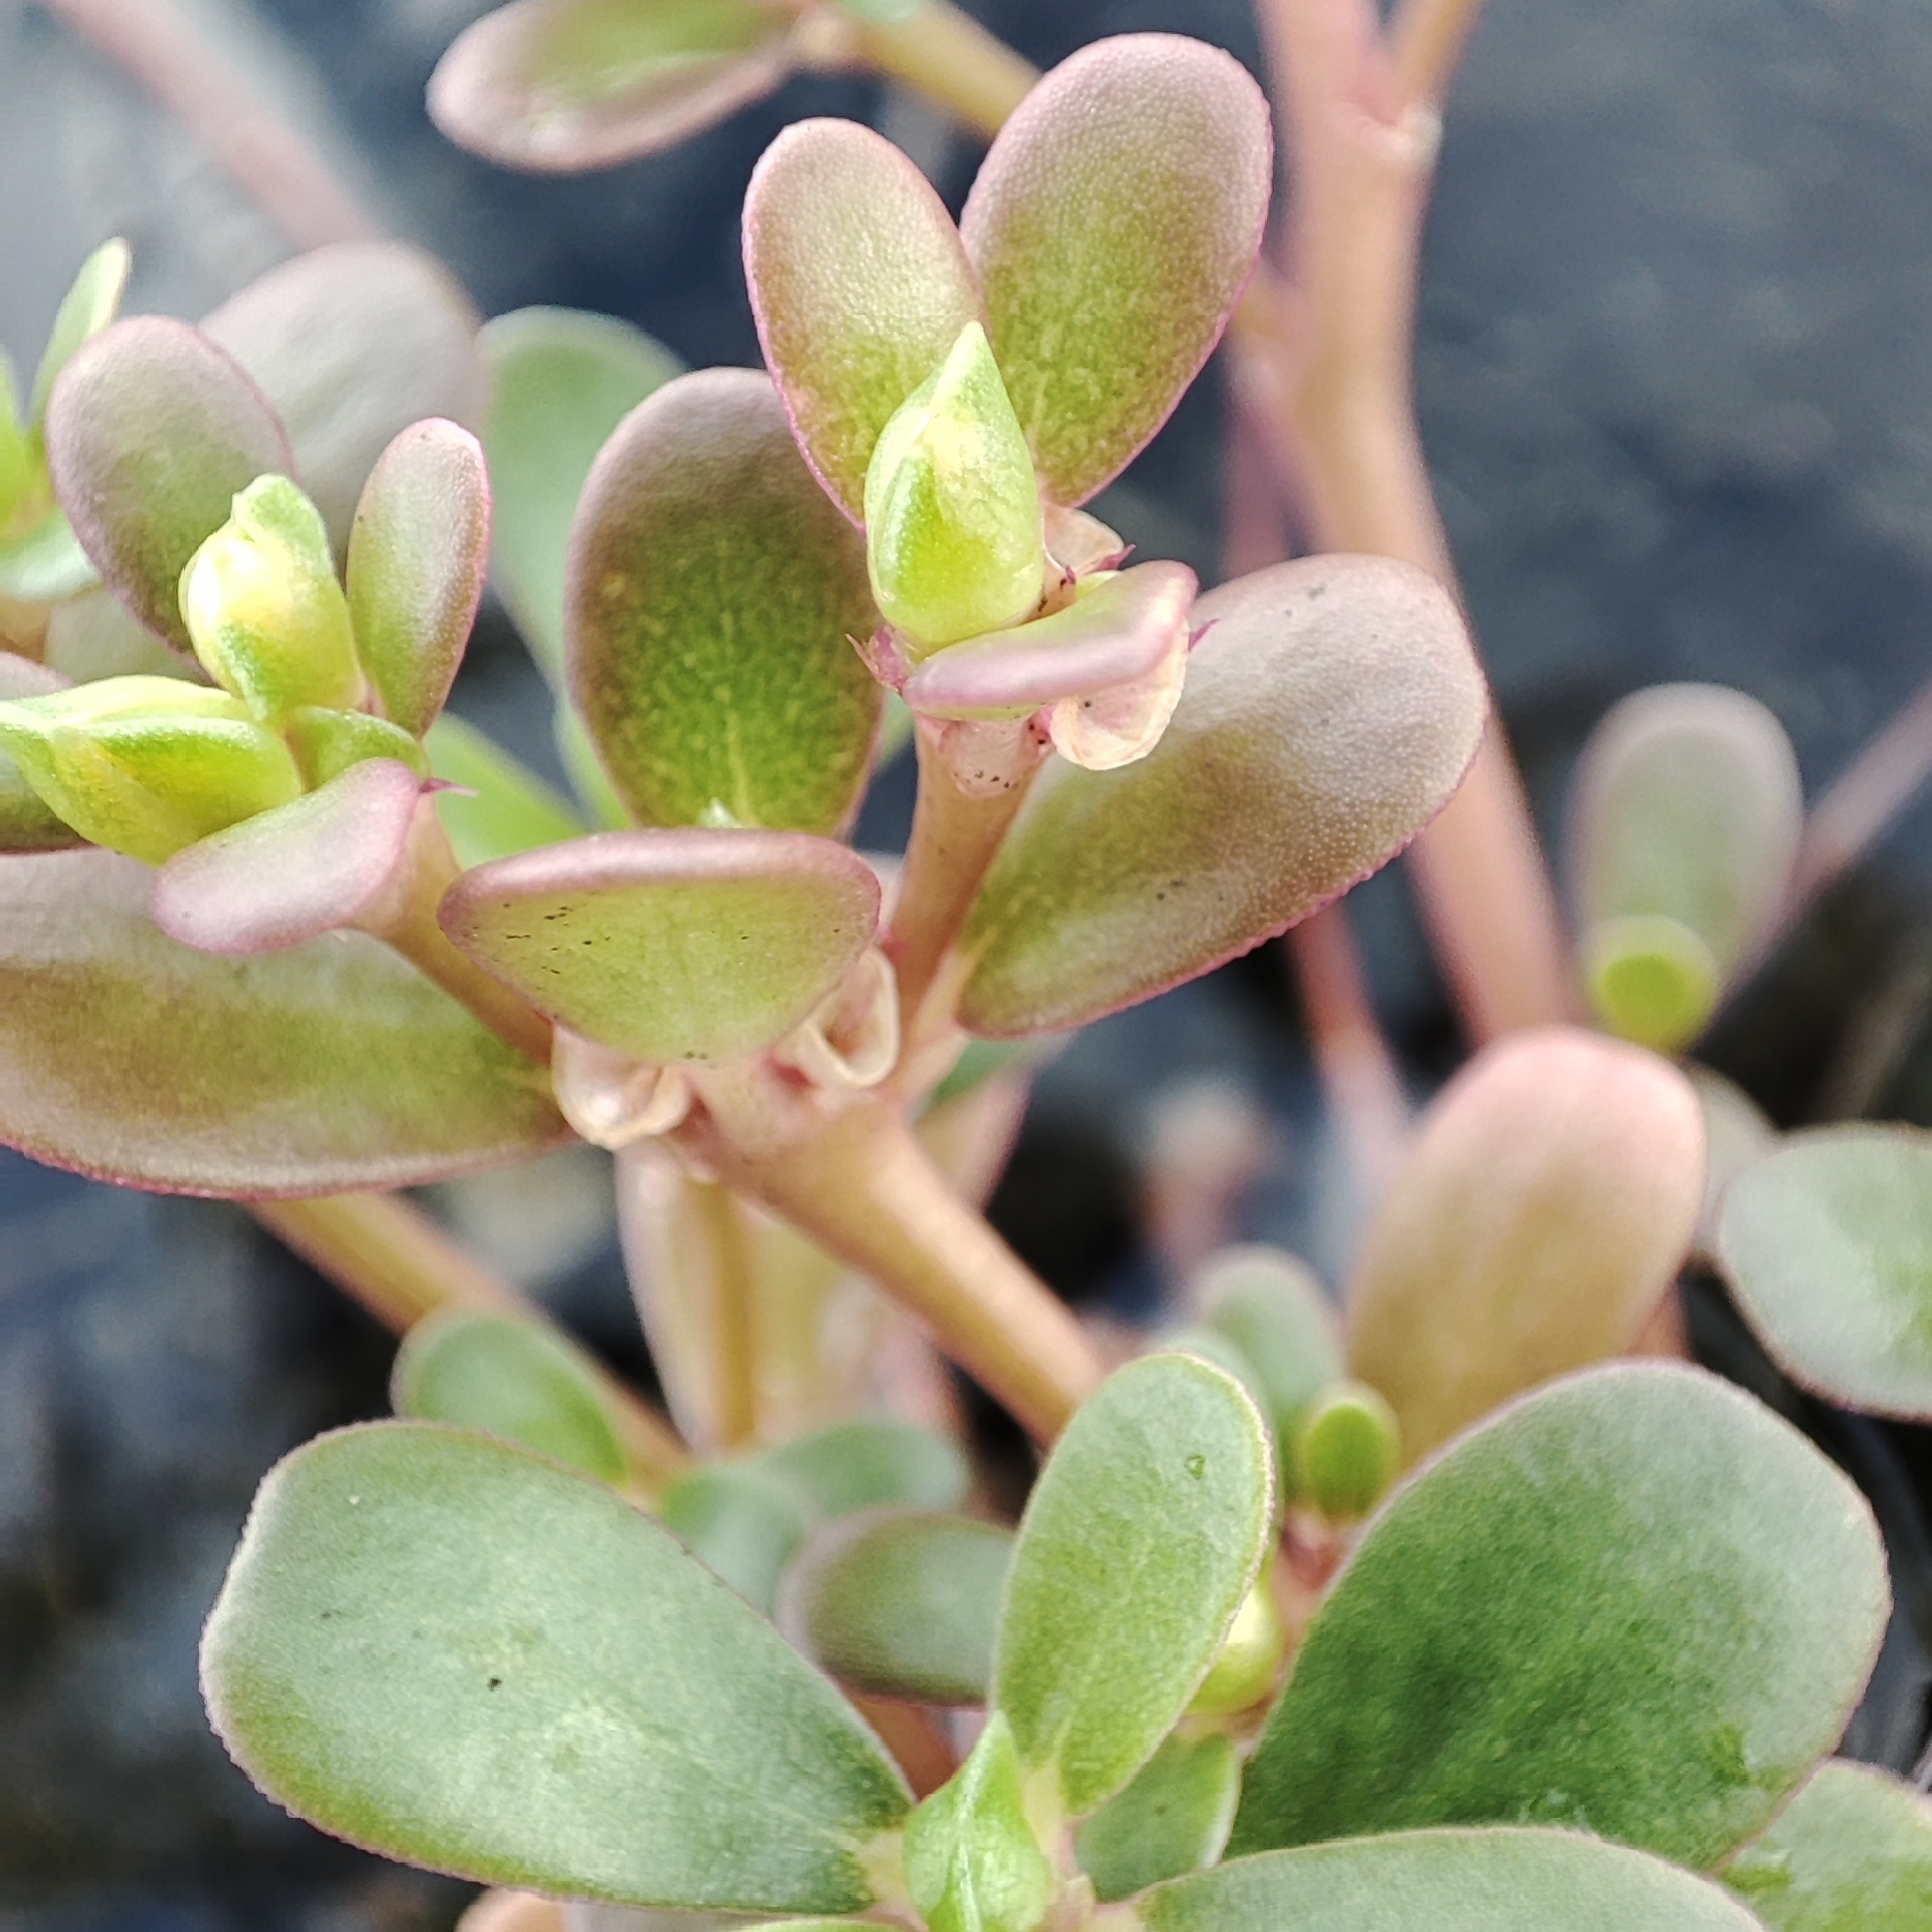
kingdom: Plantae
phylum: Tracheophyta
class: Magnoliopsida
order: Caryophyllales
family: Portulacaceae
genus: Portulaca
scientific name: Portulaca oleracea
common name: Common purslane
